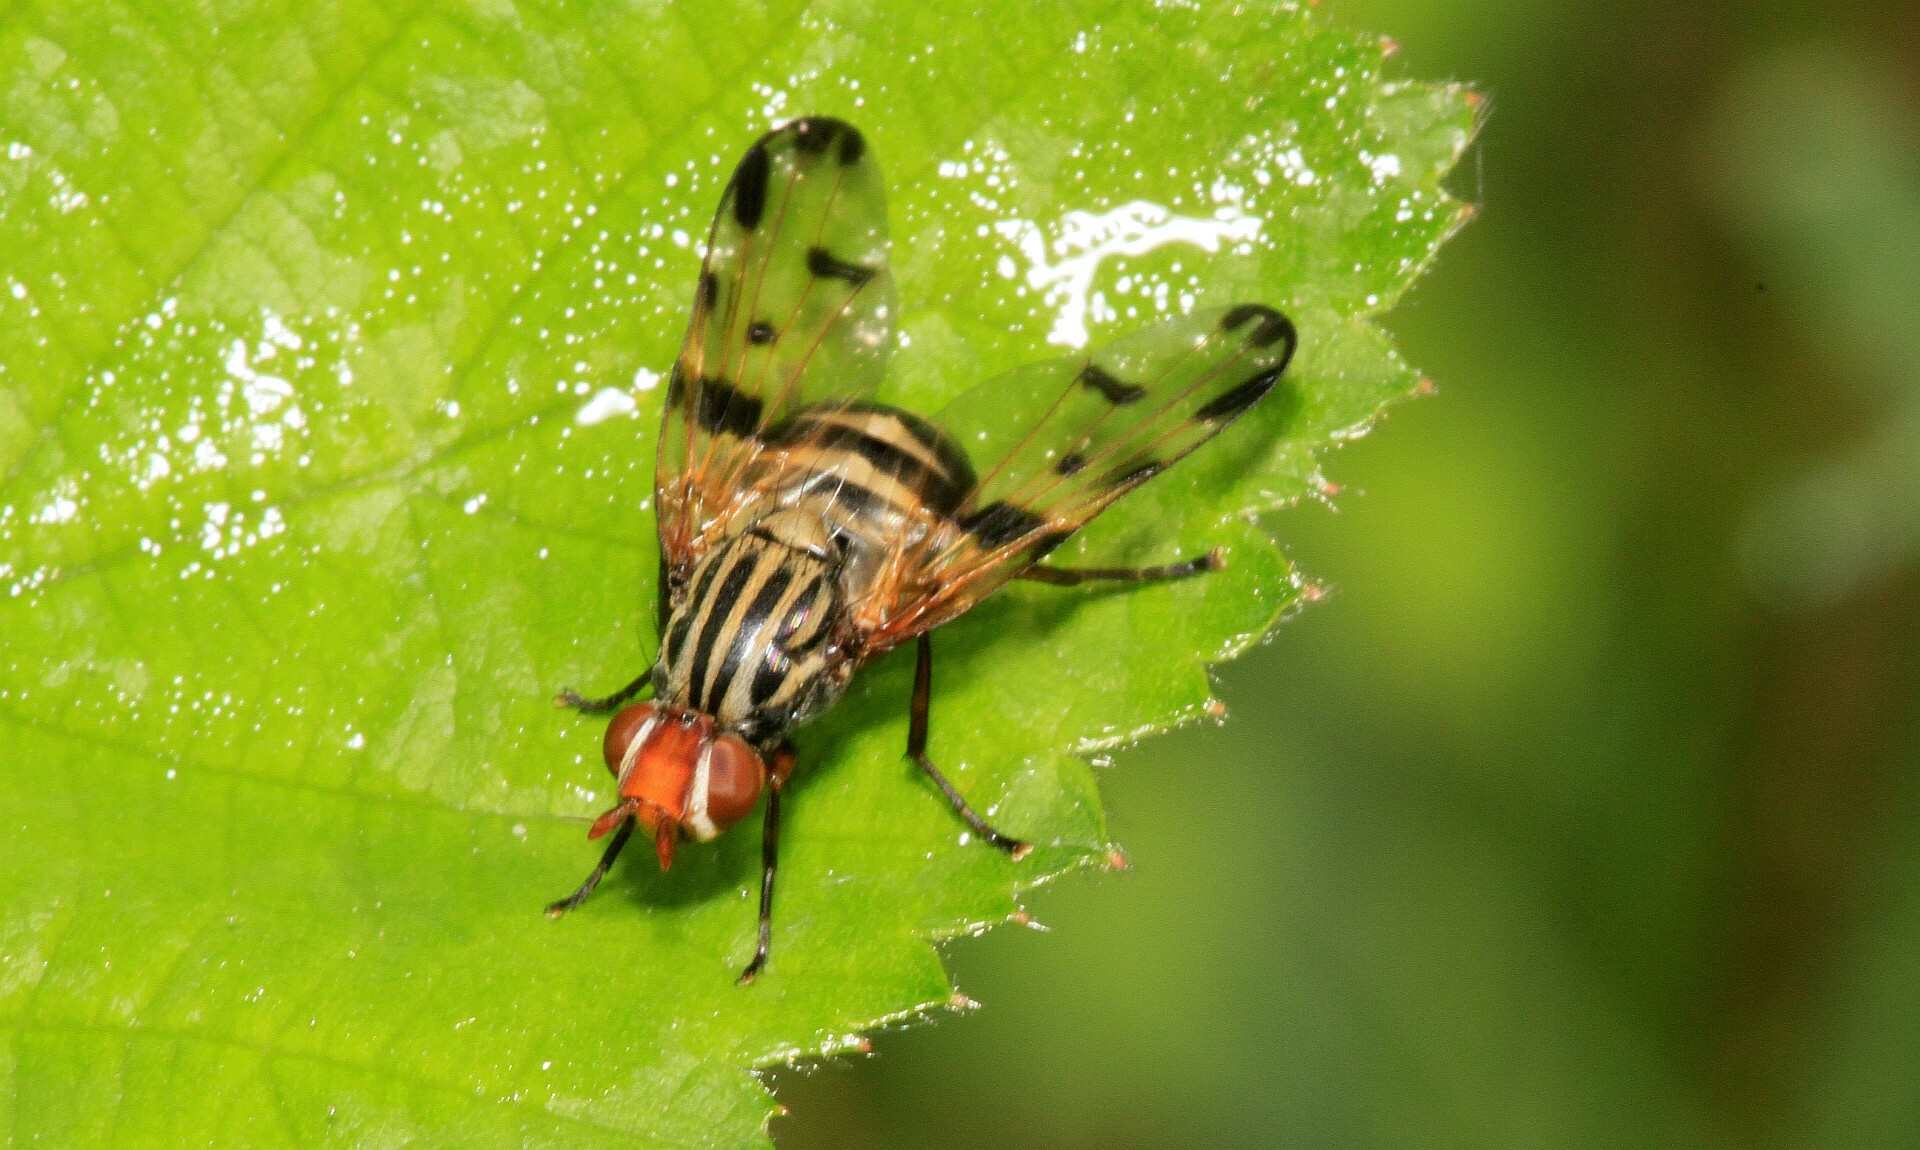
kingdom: Animalia
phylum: Arthropoda
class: Insecta
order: Diptera
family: Ulidiidae
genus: Otites
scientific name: Otites porcus
